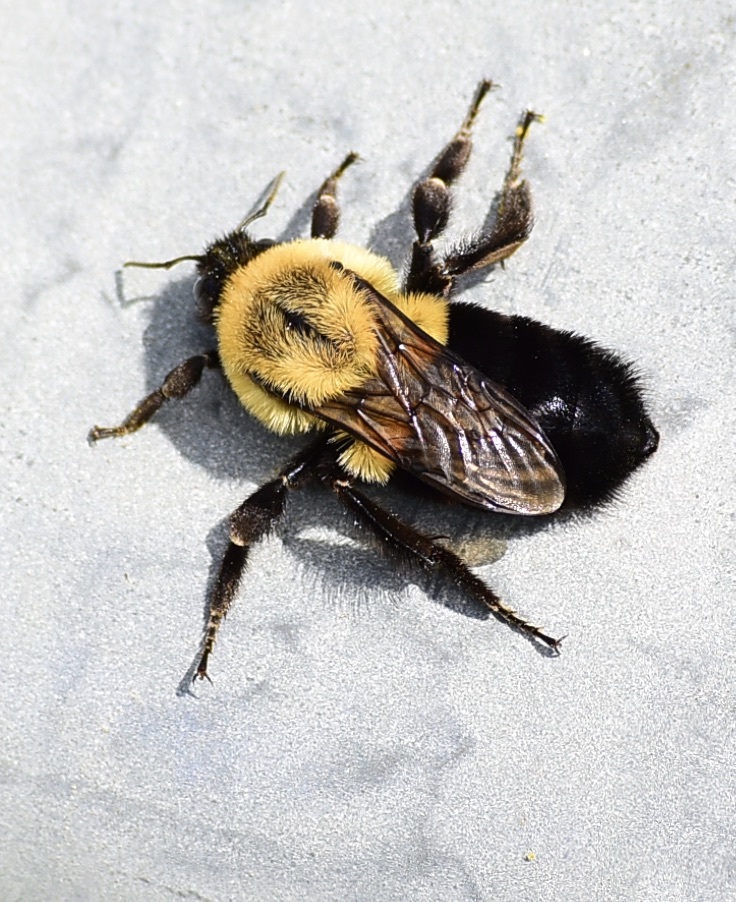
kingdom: Animalia
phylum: Arthropoda
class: Insecta
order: Hymenoptera
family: Apidae
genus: Bombus
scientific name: Bombus impatiens
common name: Common eastern bumble bee
